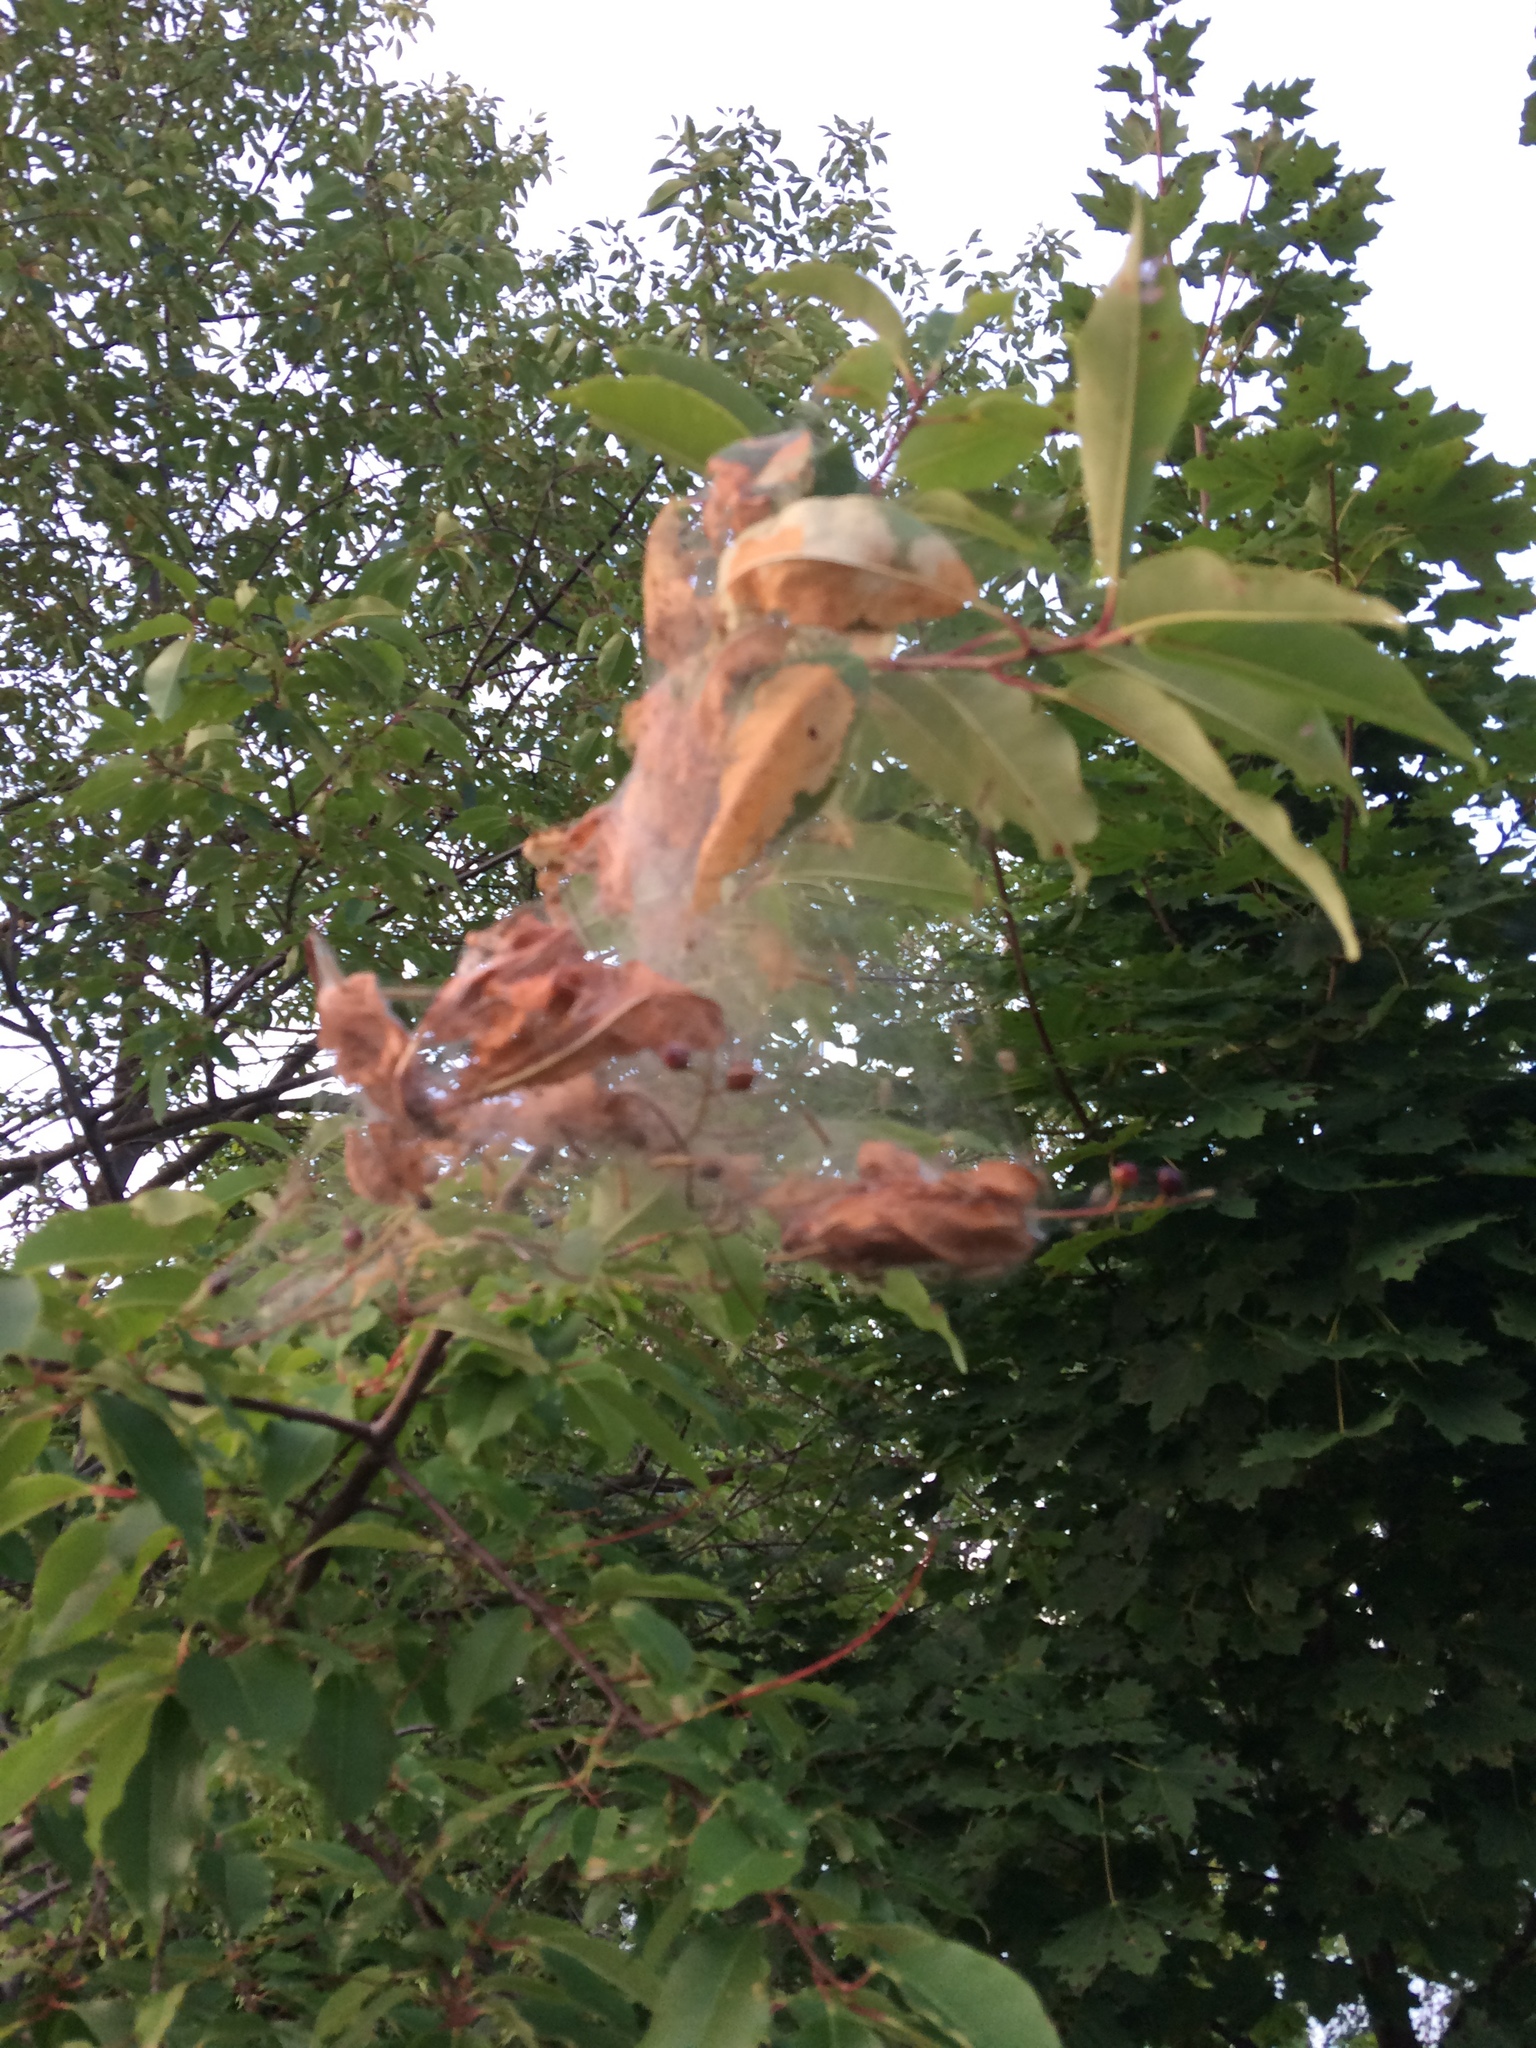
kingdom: Animalia
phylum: Arthropoda
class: Insecta
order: Lepidoptera
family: Erebidae
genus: Hyphantria
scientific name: Hyphantria cunea
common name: American white moth
